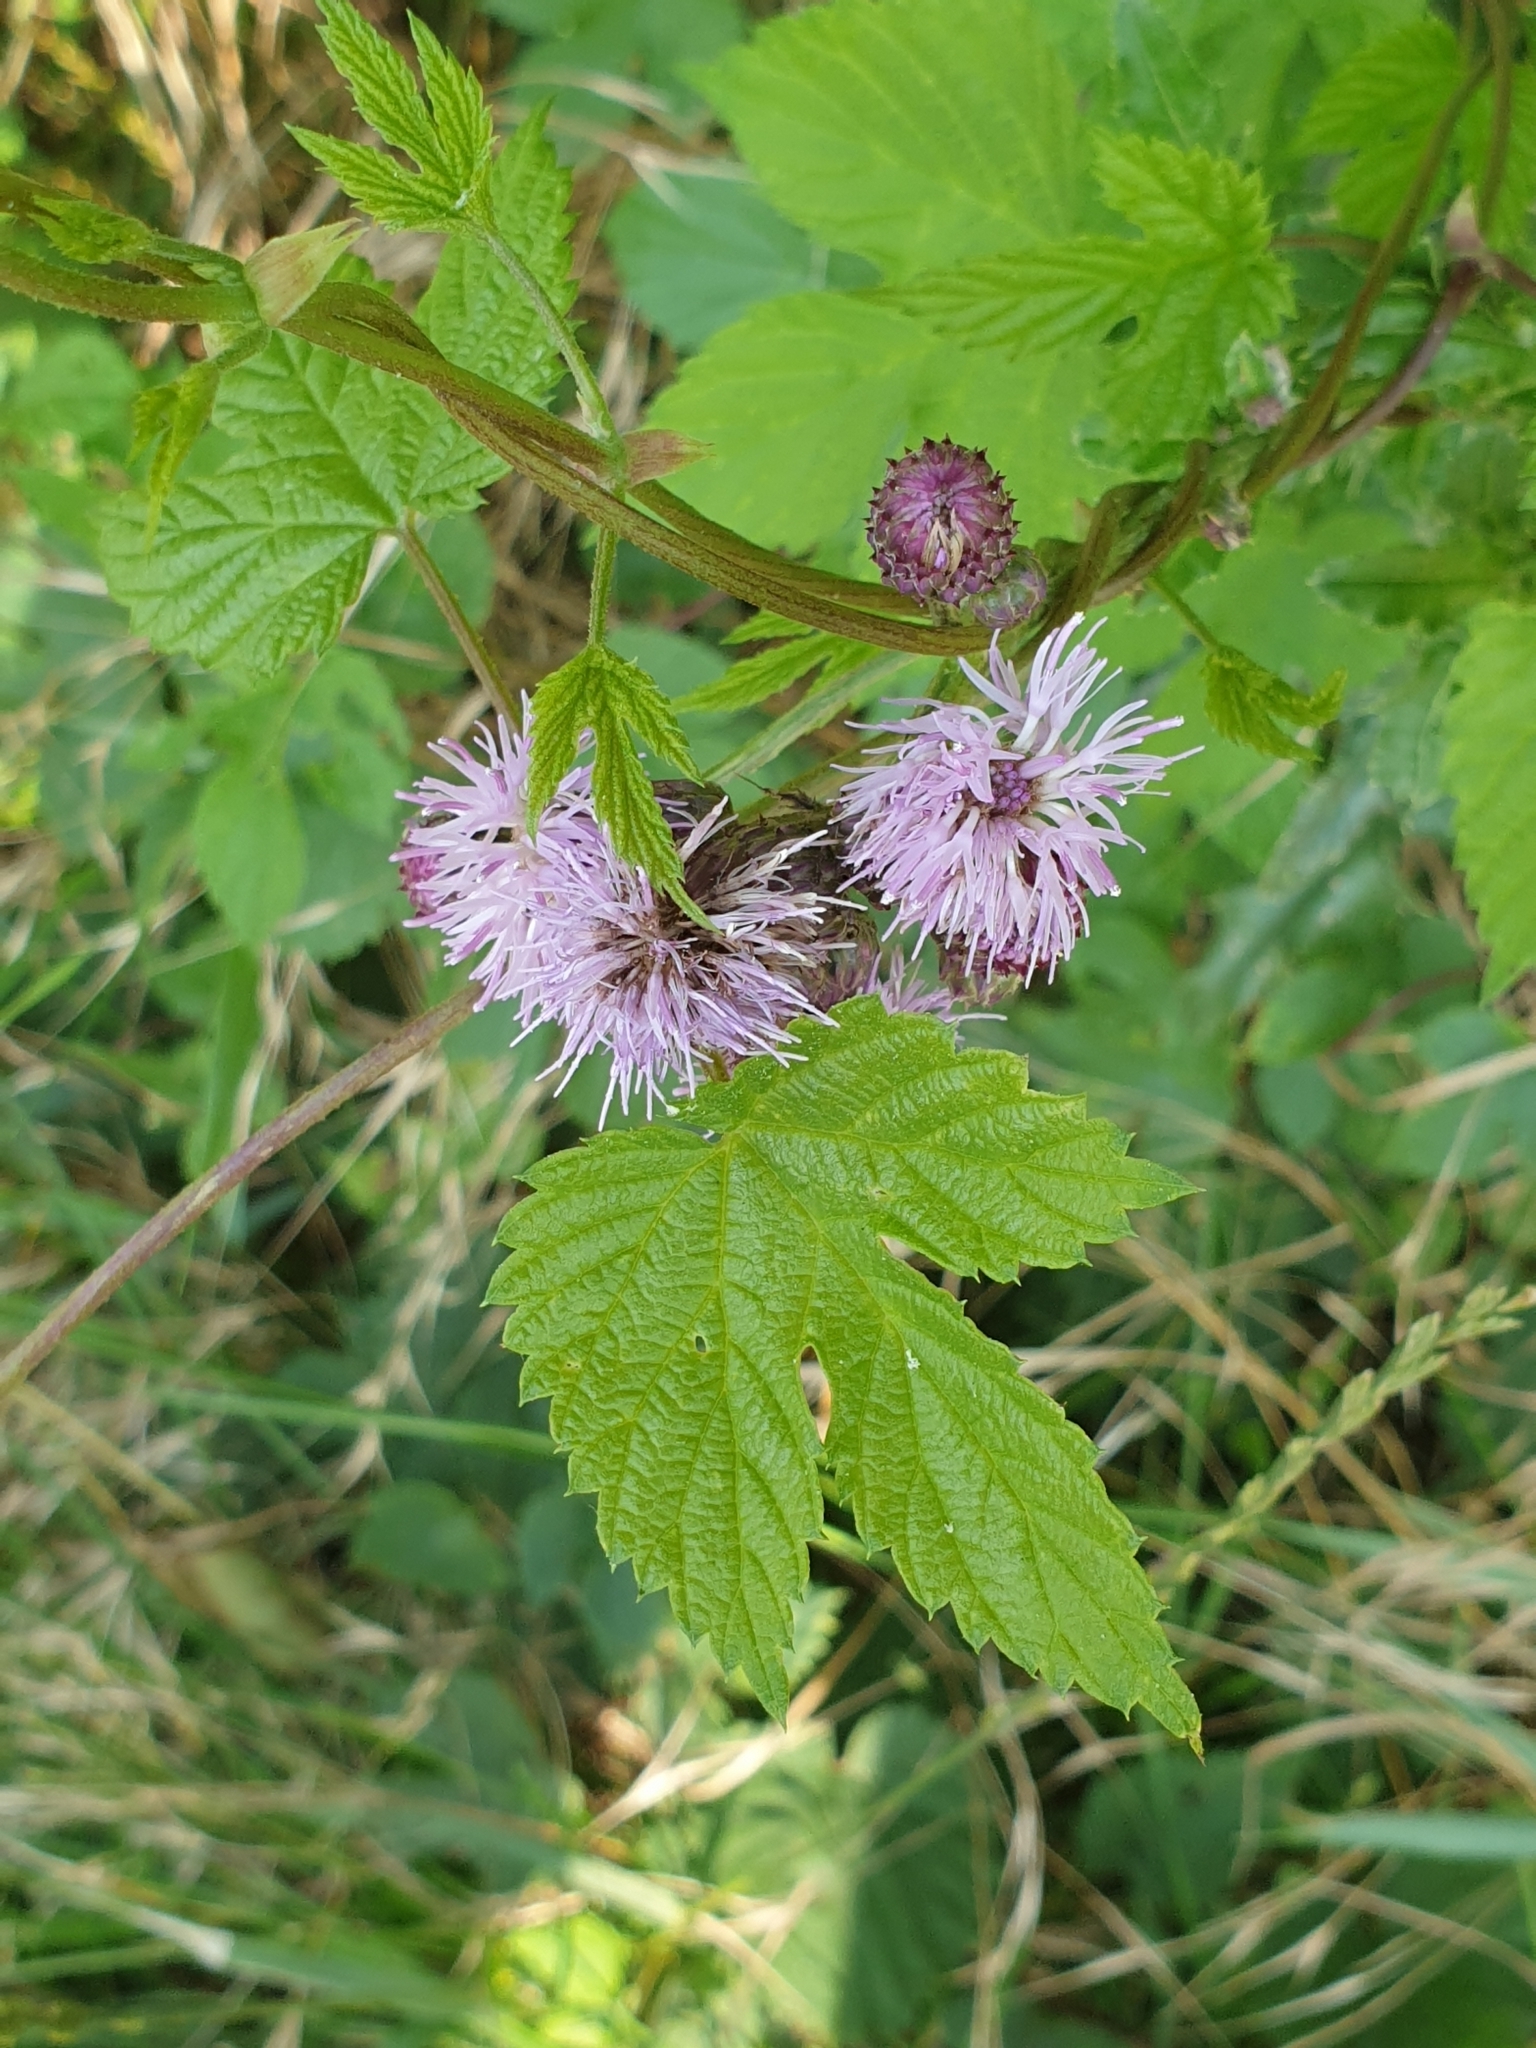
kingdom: Plantae
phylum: Tracheophyta
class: Magnoliopsida
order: Asterales
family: Asteraceae
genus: Cirsium
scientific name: Cirsium arvense
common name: Creeping thistle
